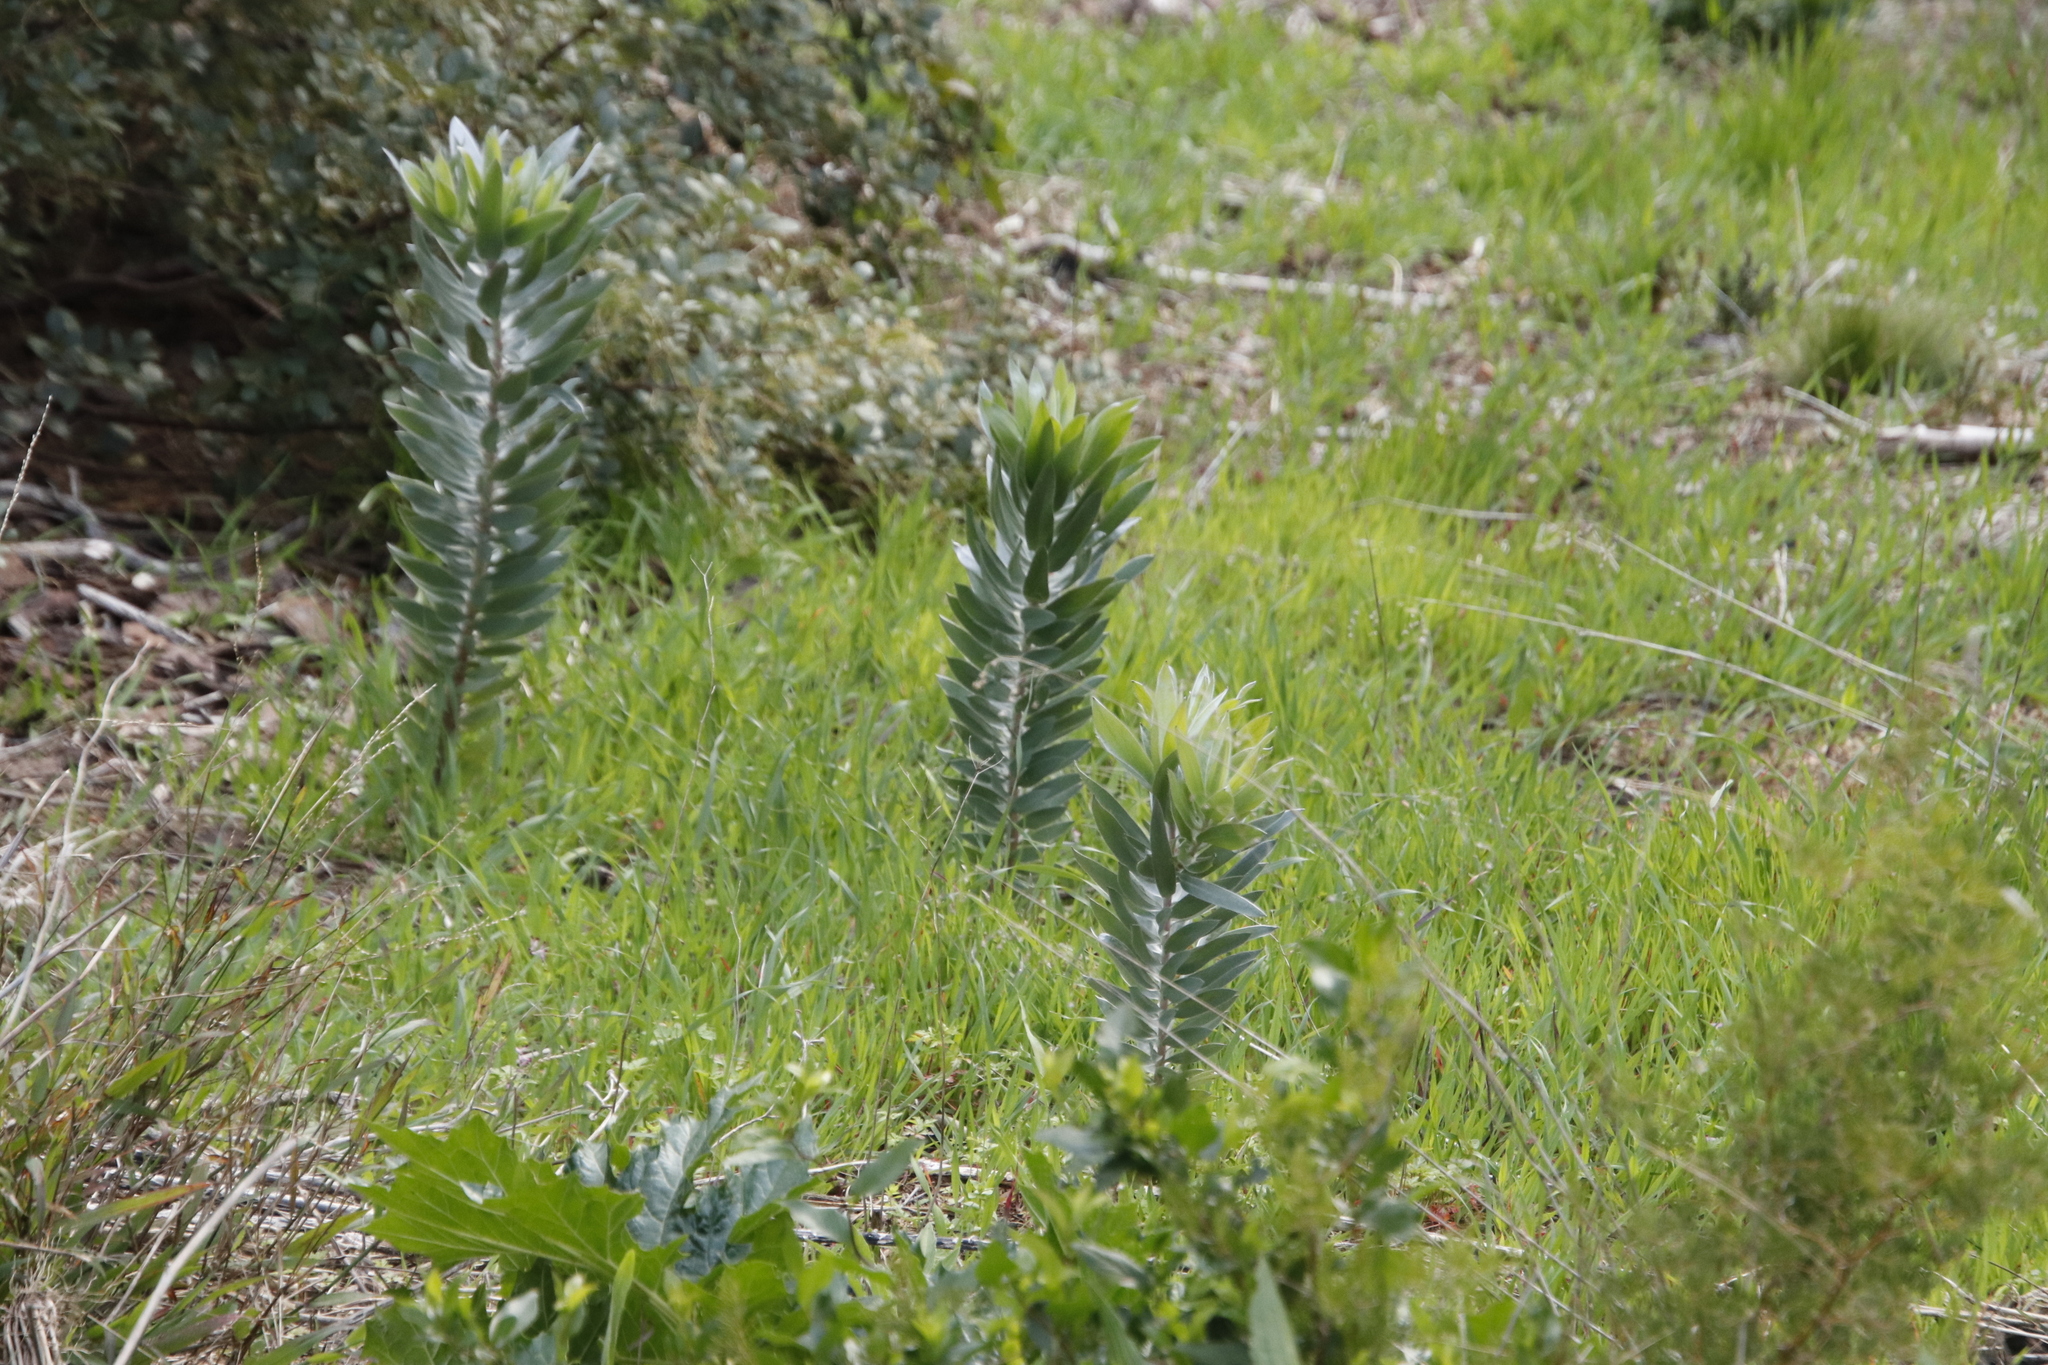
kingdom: Plantae
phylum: Tracheophyta
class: Magnoliopsida
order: Proteales
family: Proteaceae
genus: Leucadendron
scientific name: Leucadendron argenteum
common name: Cape silver tree
